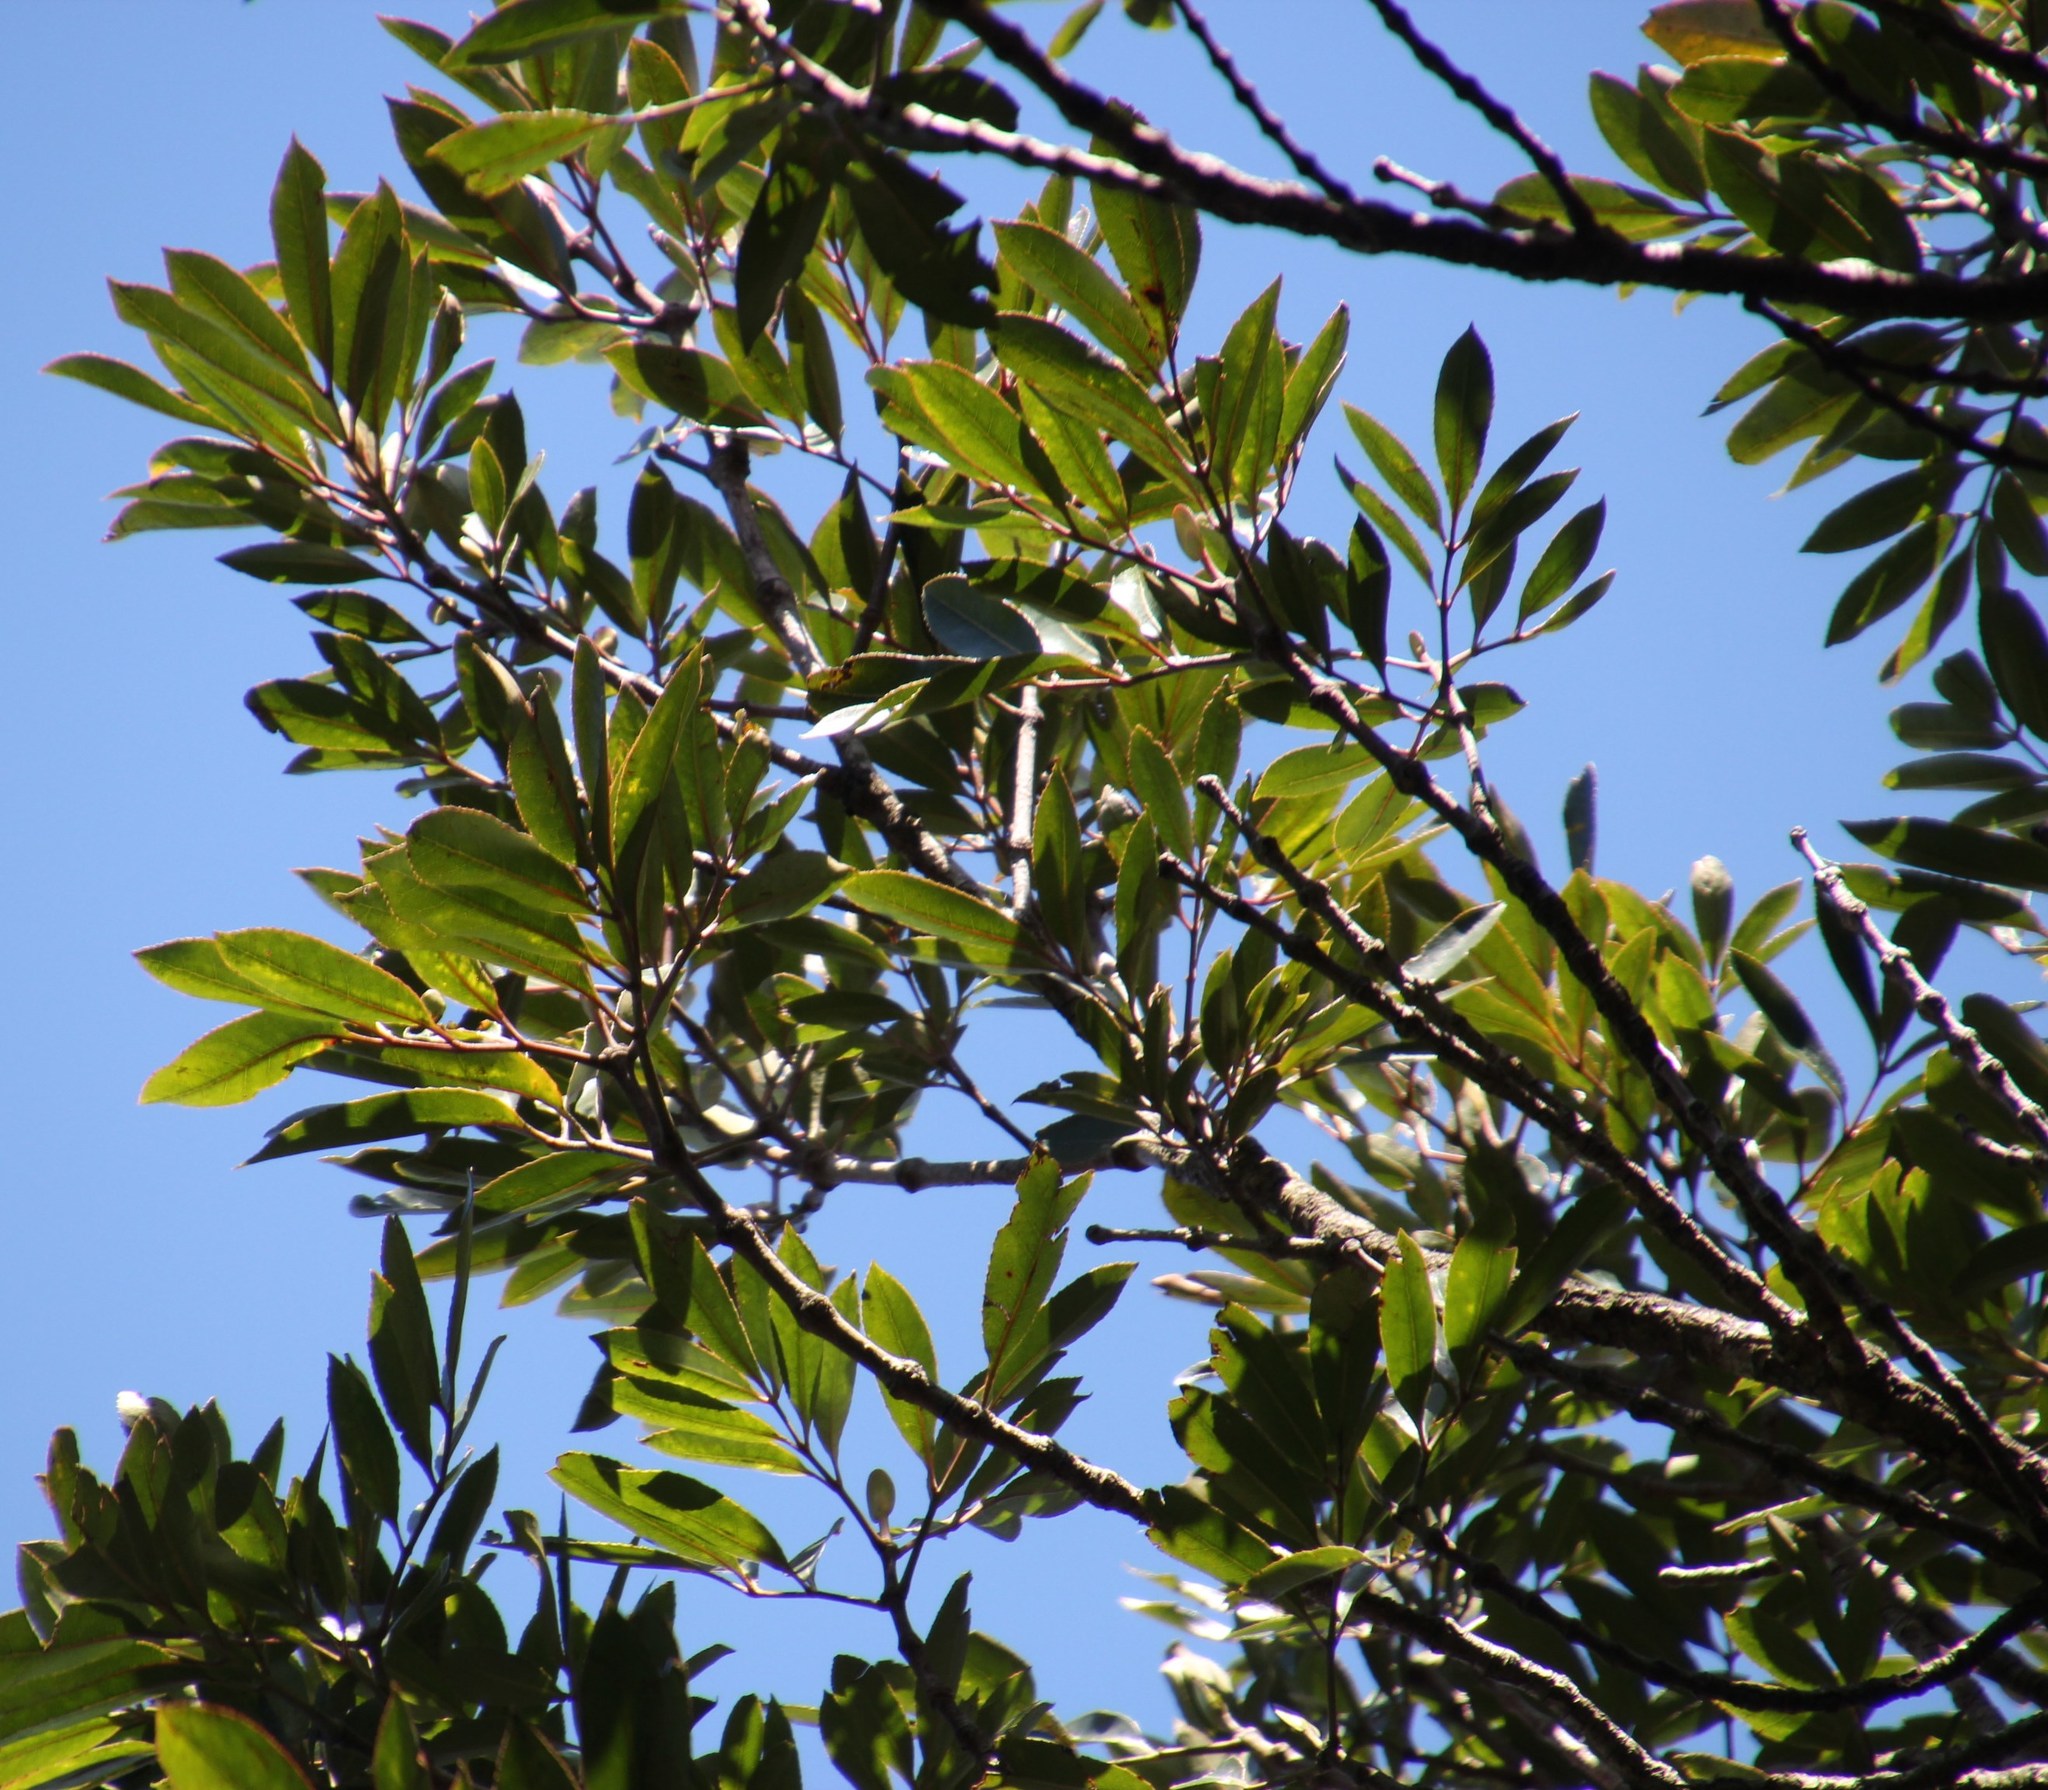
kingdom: Plantae
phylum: Tracheophyta
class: Magnoliopsida
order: Oxalidales
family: Cunoniaceae
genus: Cunonia
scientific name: Cunonia capensis
